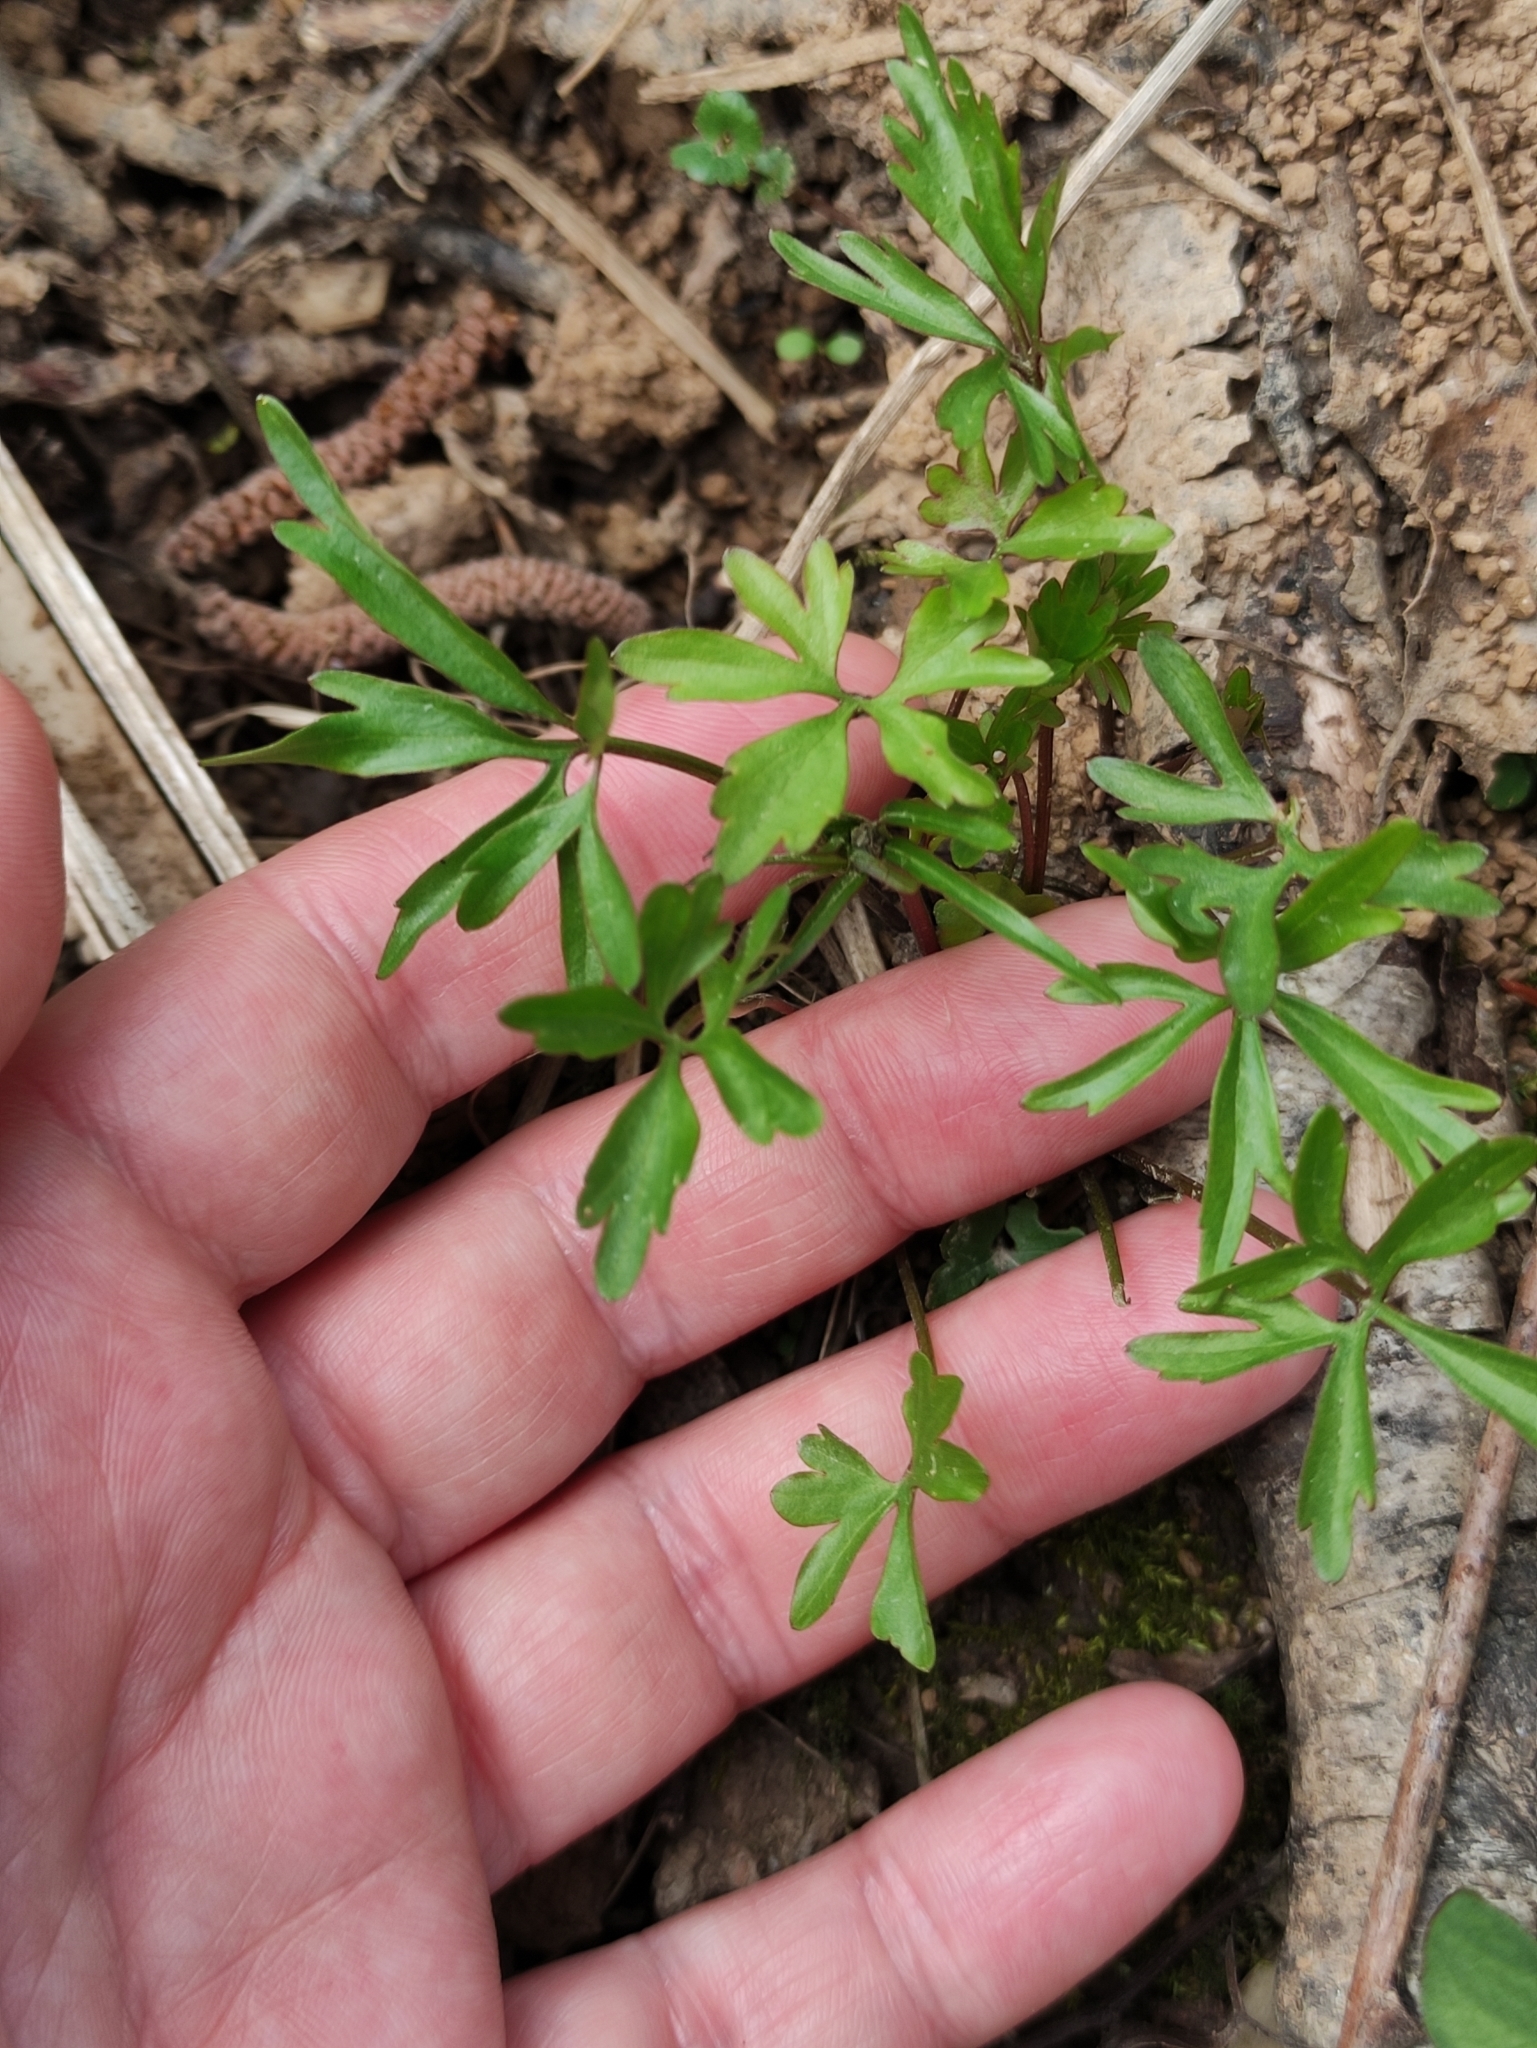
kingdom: Plantae
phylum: Tracheophyta
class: Magnoliopsida
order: Ranunculales
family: Ranunculaceae
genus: Ranunculus
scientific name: Ranunculus auricomus
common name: Goldilocks buttercup
